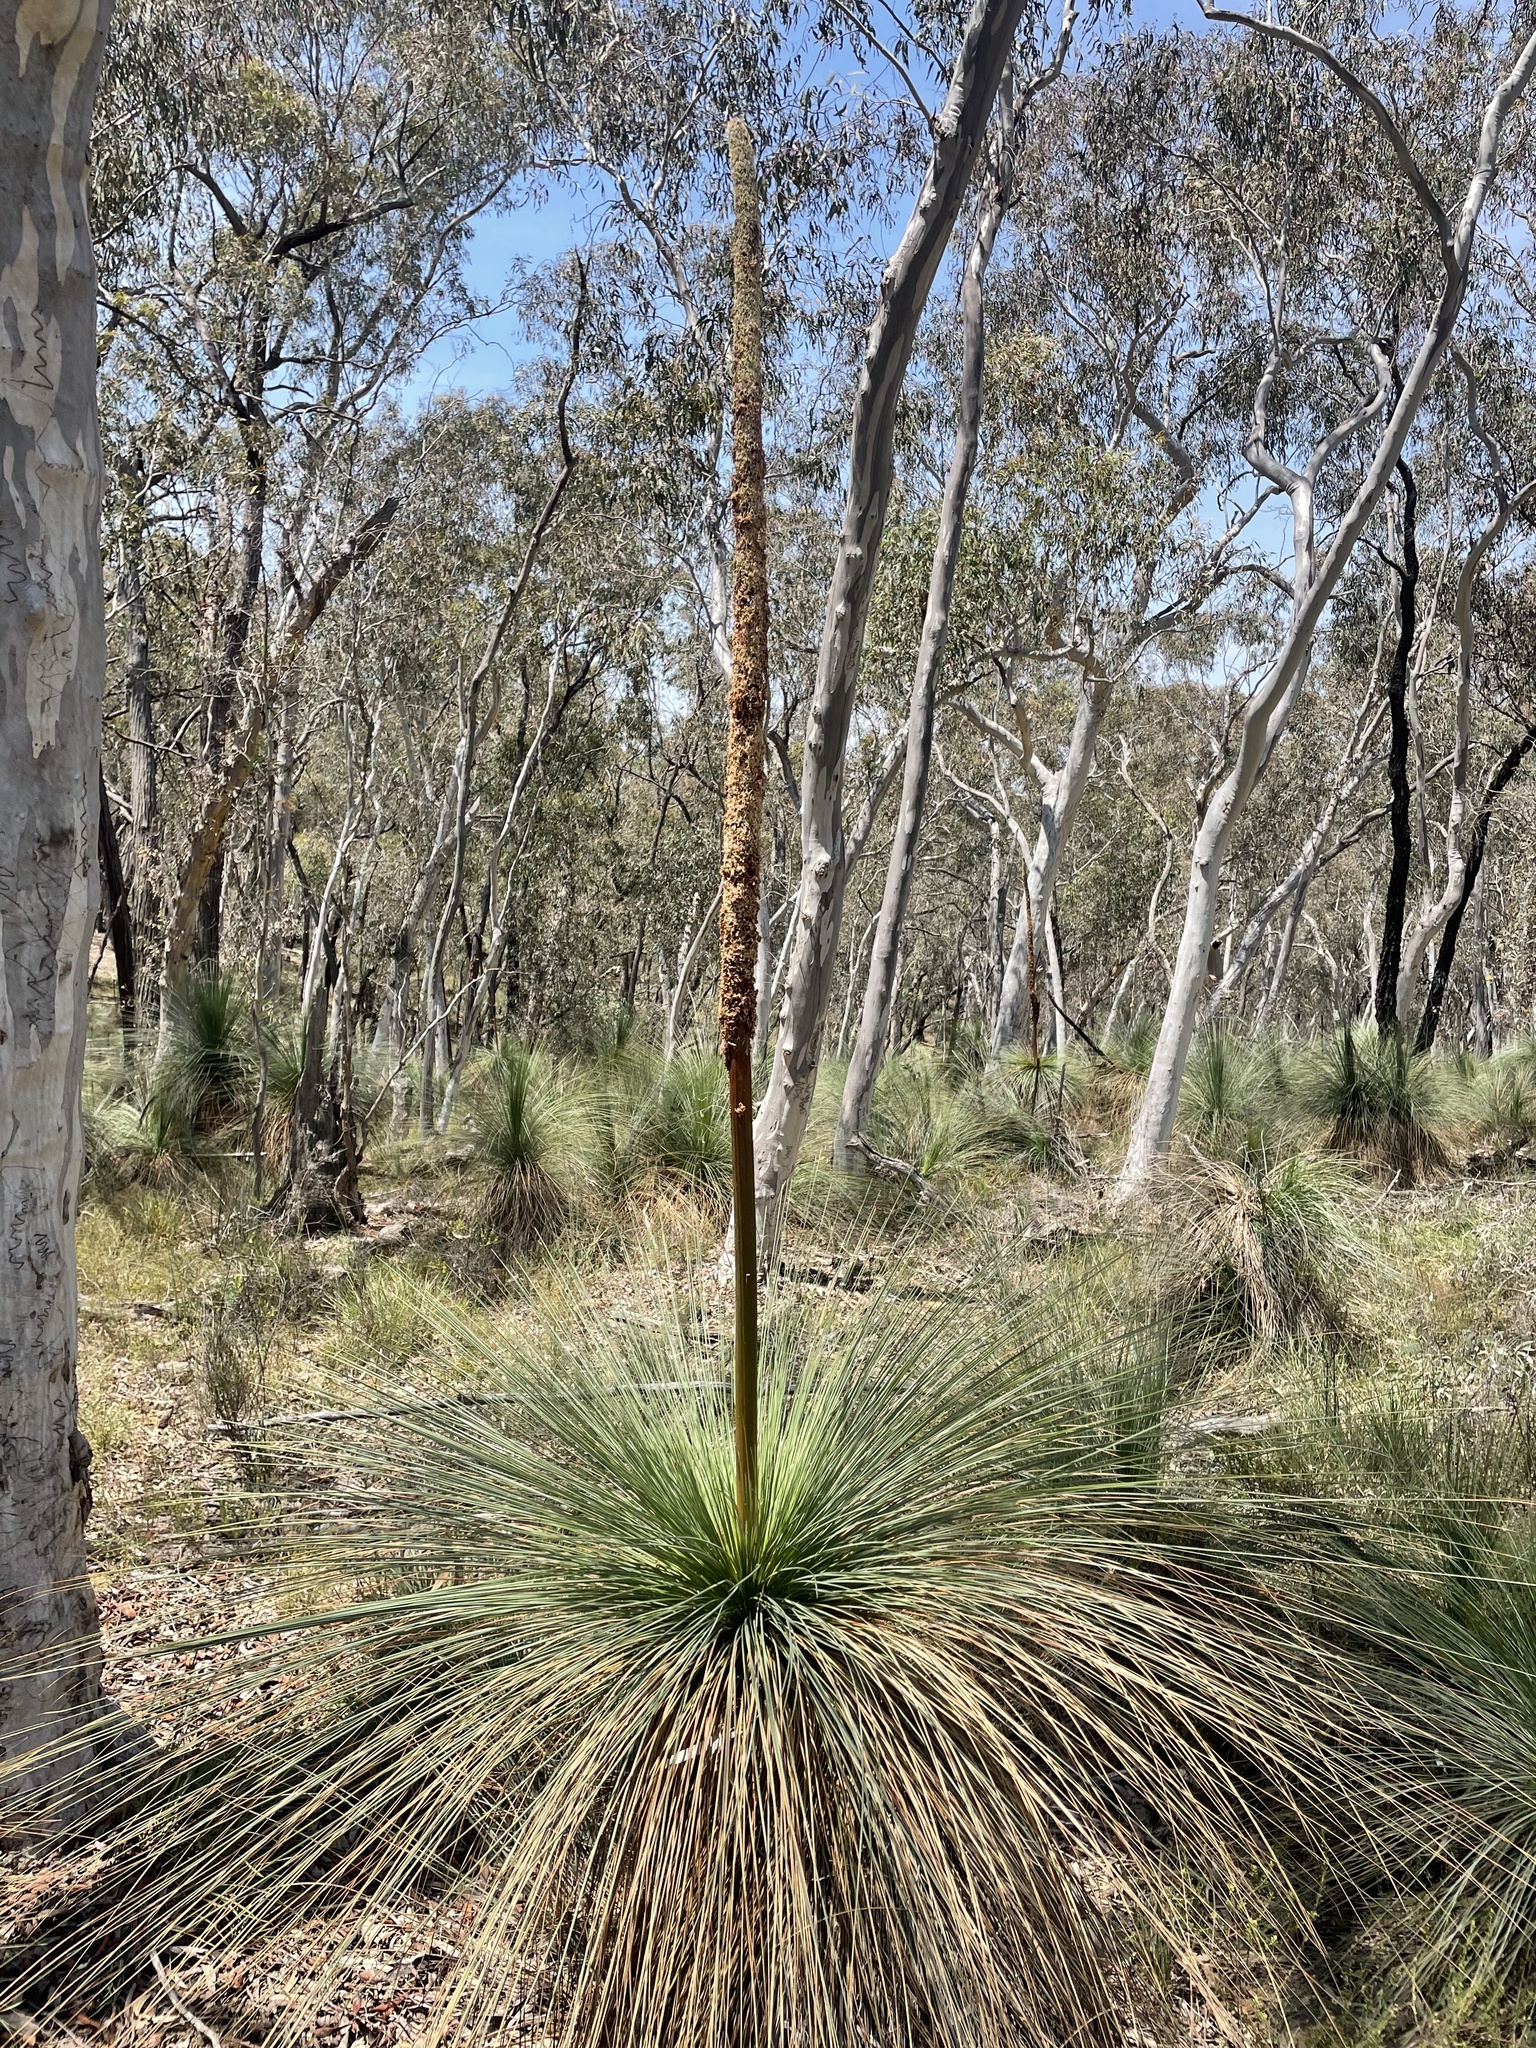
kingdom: Plantae
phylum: Tracheophyta
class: Liliopsida
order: Asparagales
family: Asphodelaceae
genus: Xanthorrhoea
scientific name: Xanthorrhoea glauca
